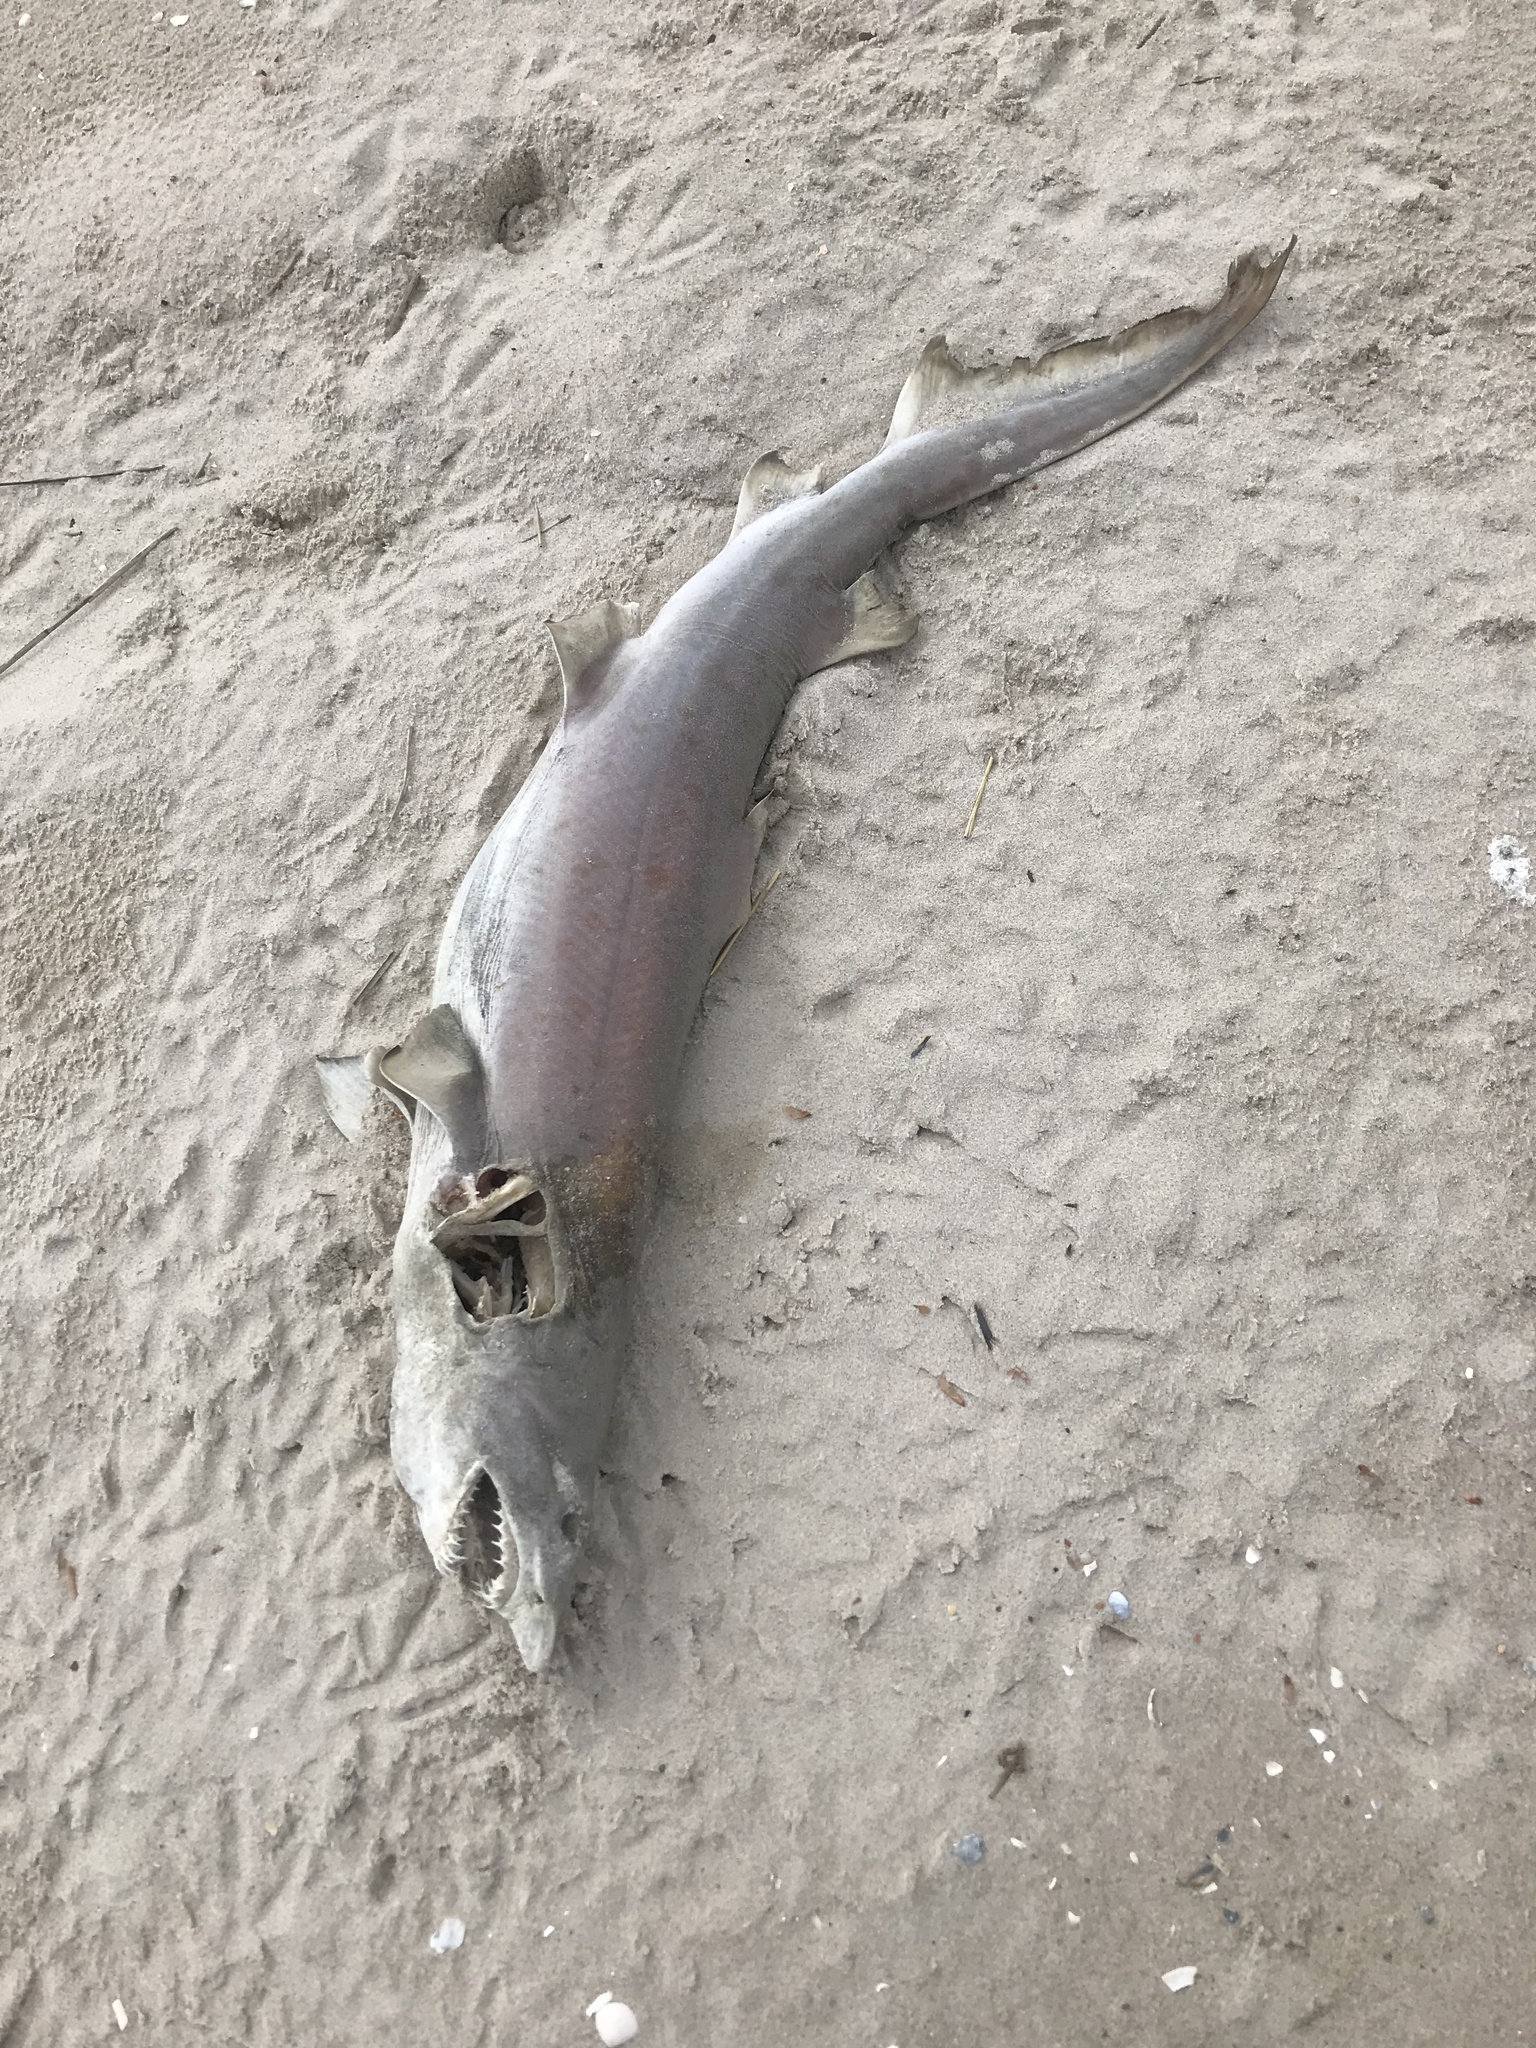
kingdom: Animalia
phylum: Chordata
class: Elasmobranchii
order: Lamniformes
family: Odontaspididae
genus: Carcharias
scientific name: Carcharias taurus
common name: Sand shark
